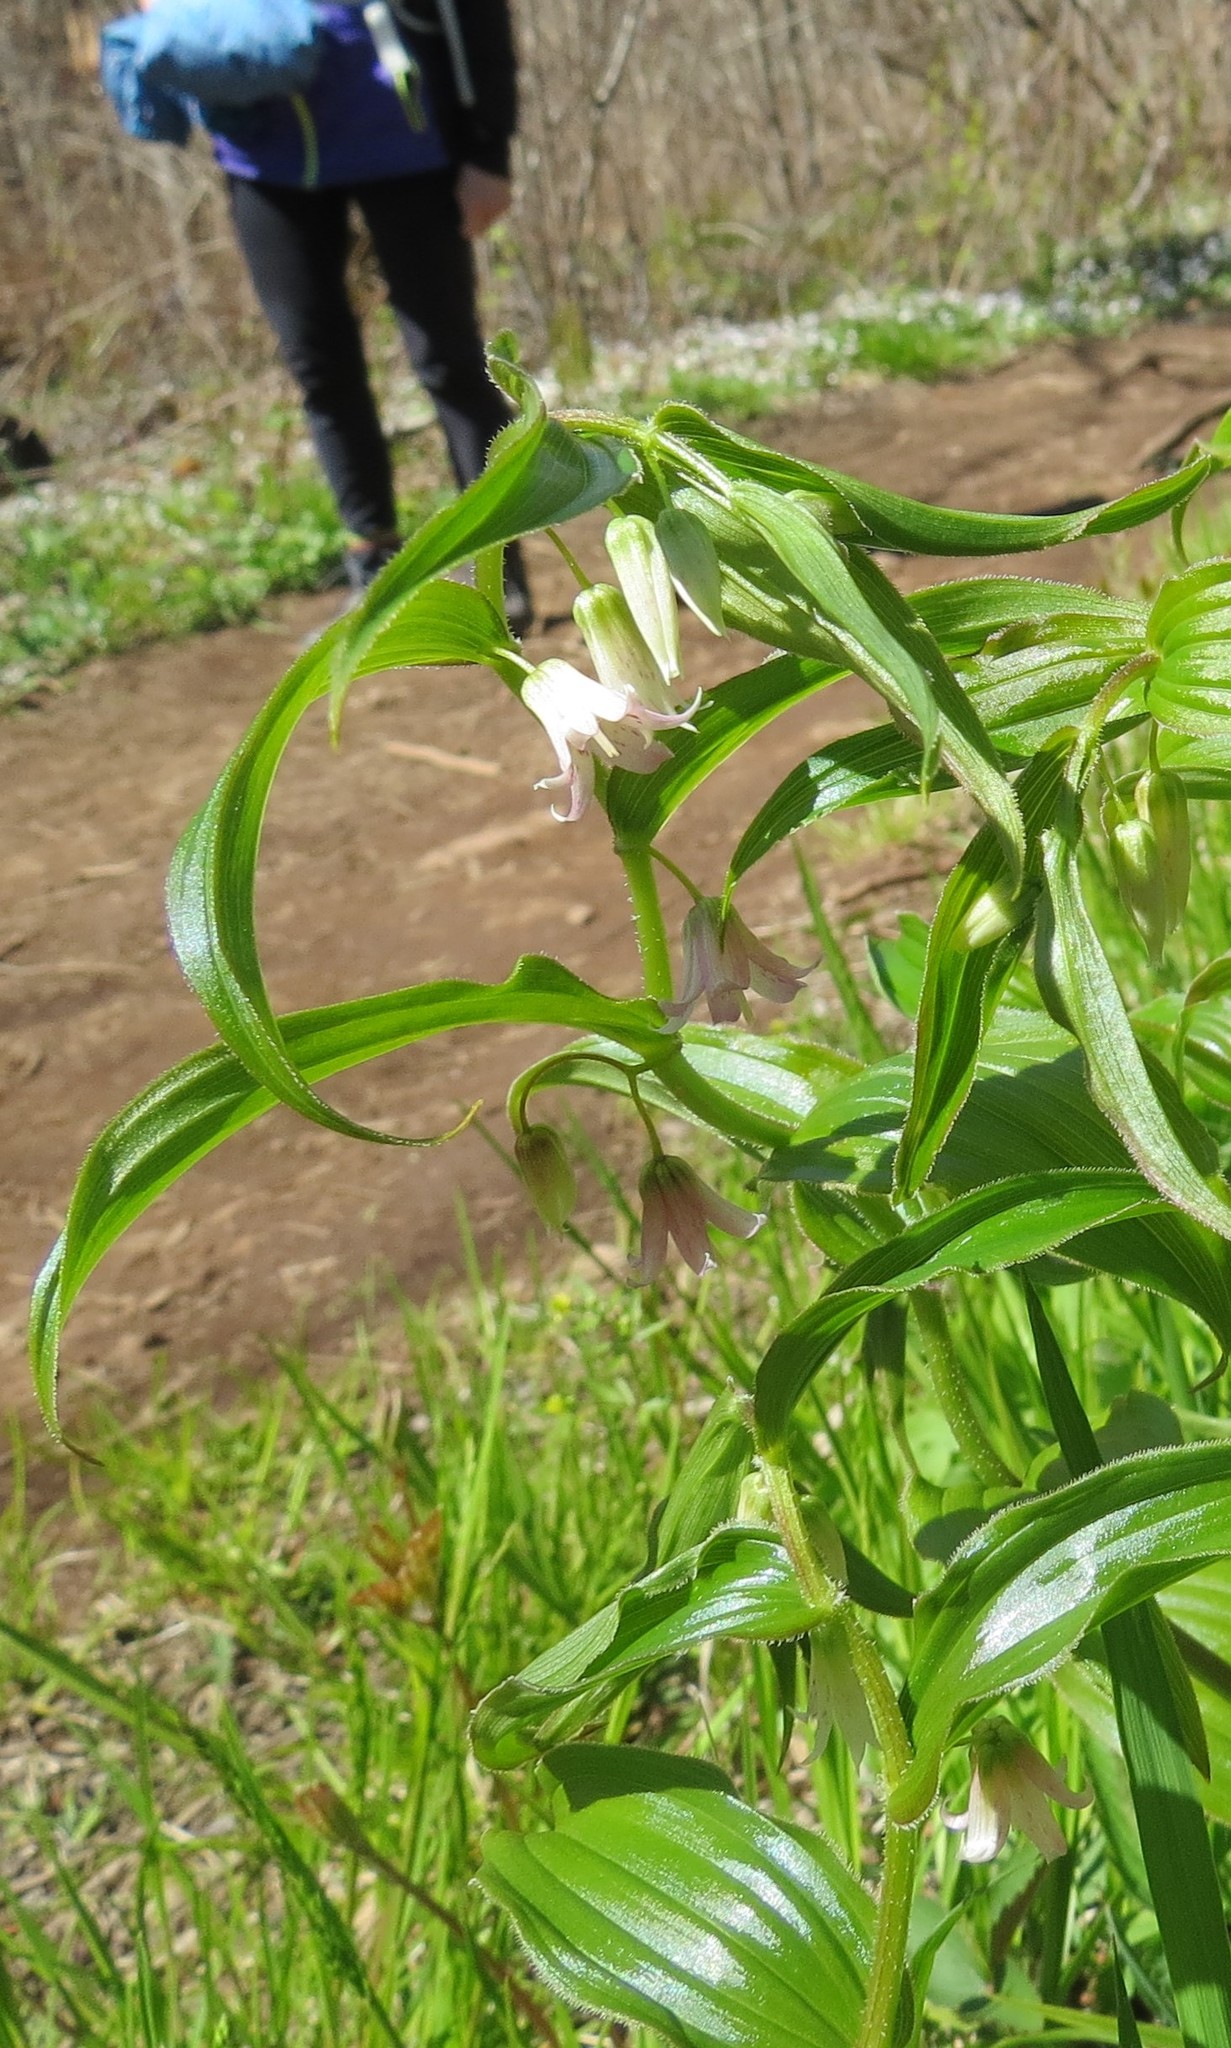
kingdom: Plantae
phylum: Tracheophyta
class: Liliopsida
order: Liliales
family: Liliaceae
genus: Streptopus
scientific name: Streptopus lanceolatus
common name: Rose mandarin
